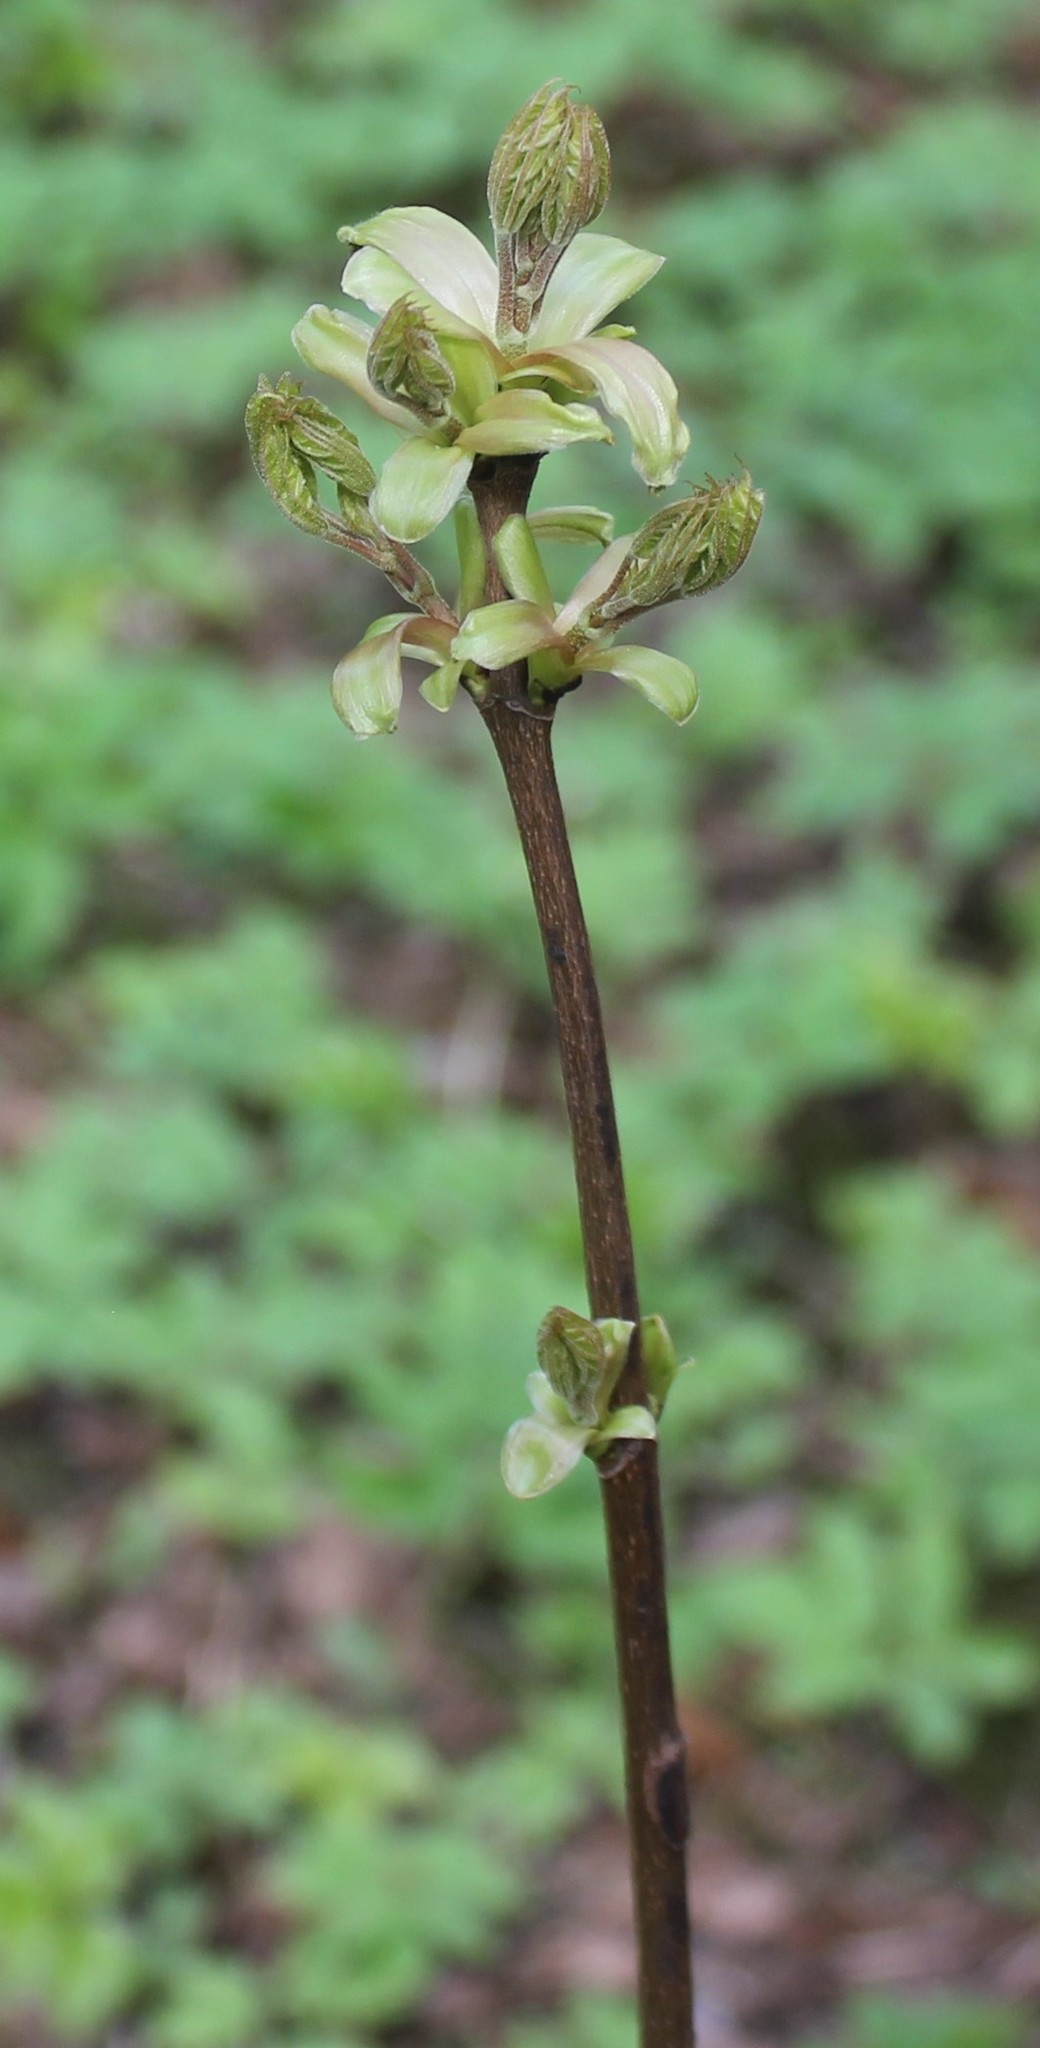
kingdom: Plantae
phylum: Tracheophyta
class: Magnoliopsida
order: Sapindales
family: Sapindaceae
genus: Acer
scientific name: Acer platanoides
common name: Norway maple
